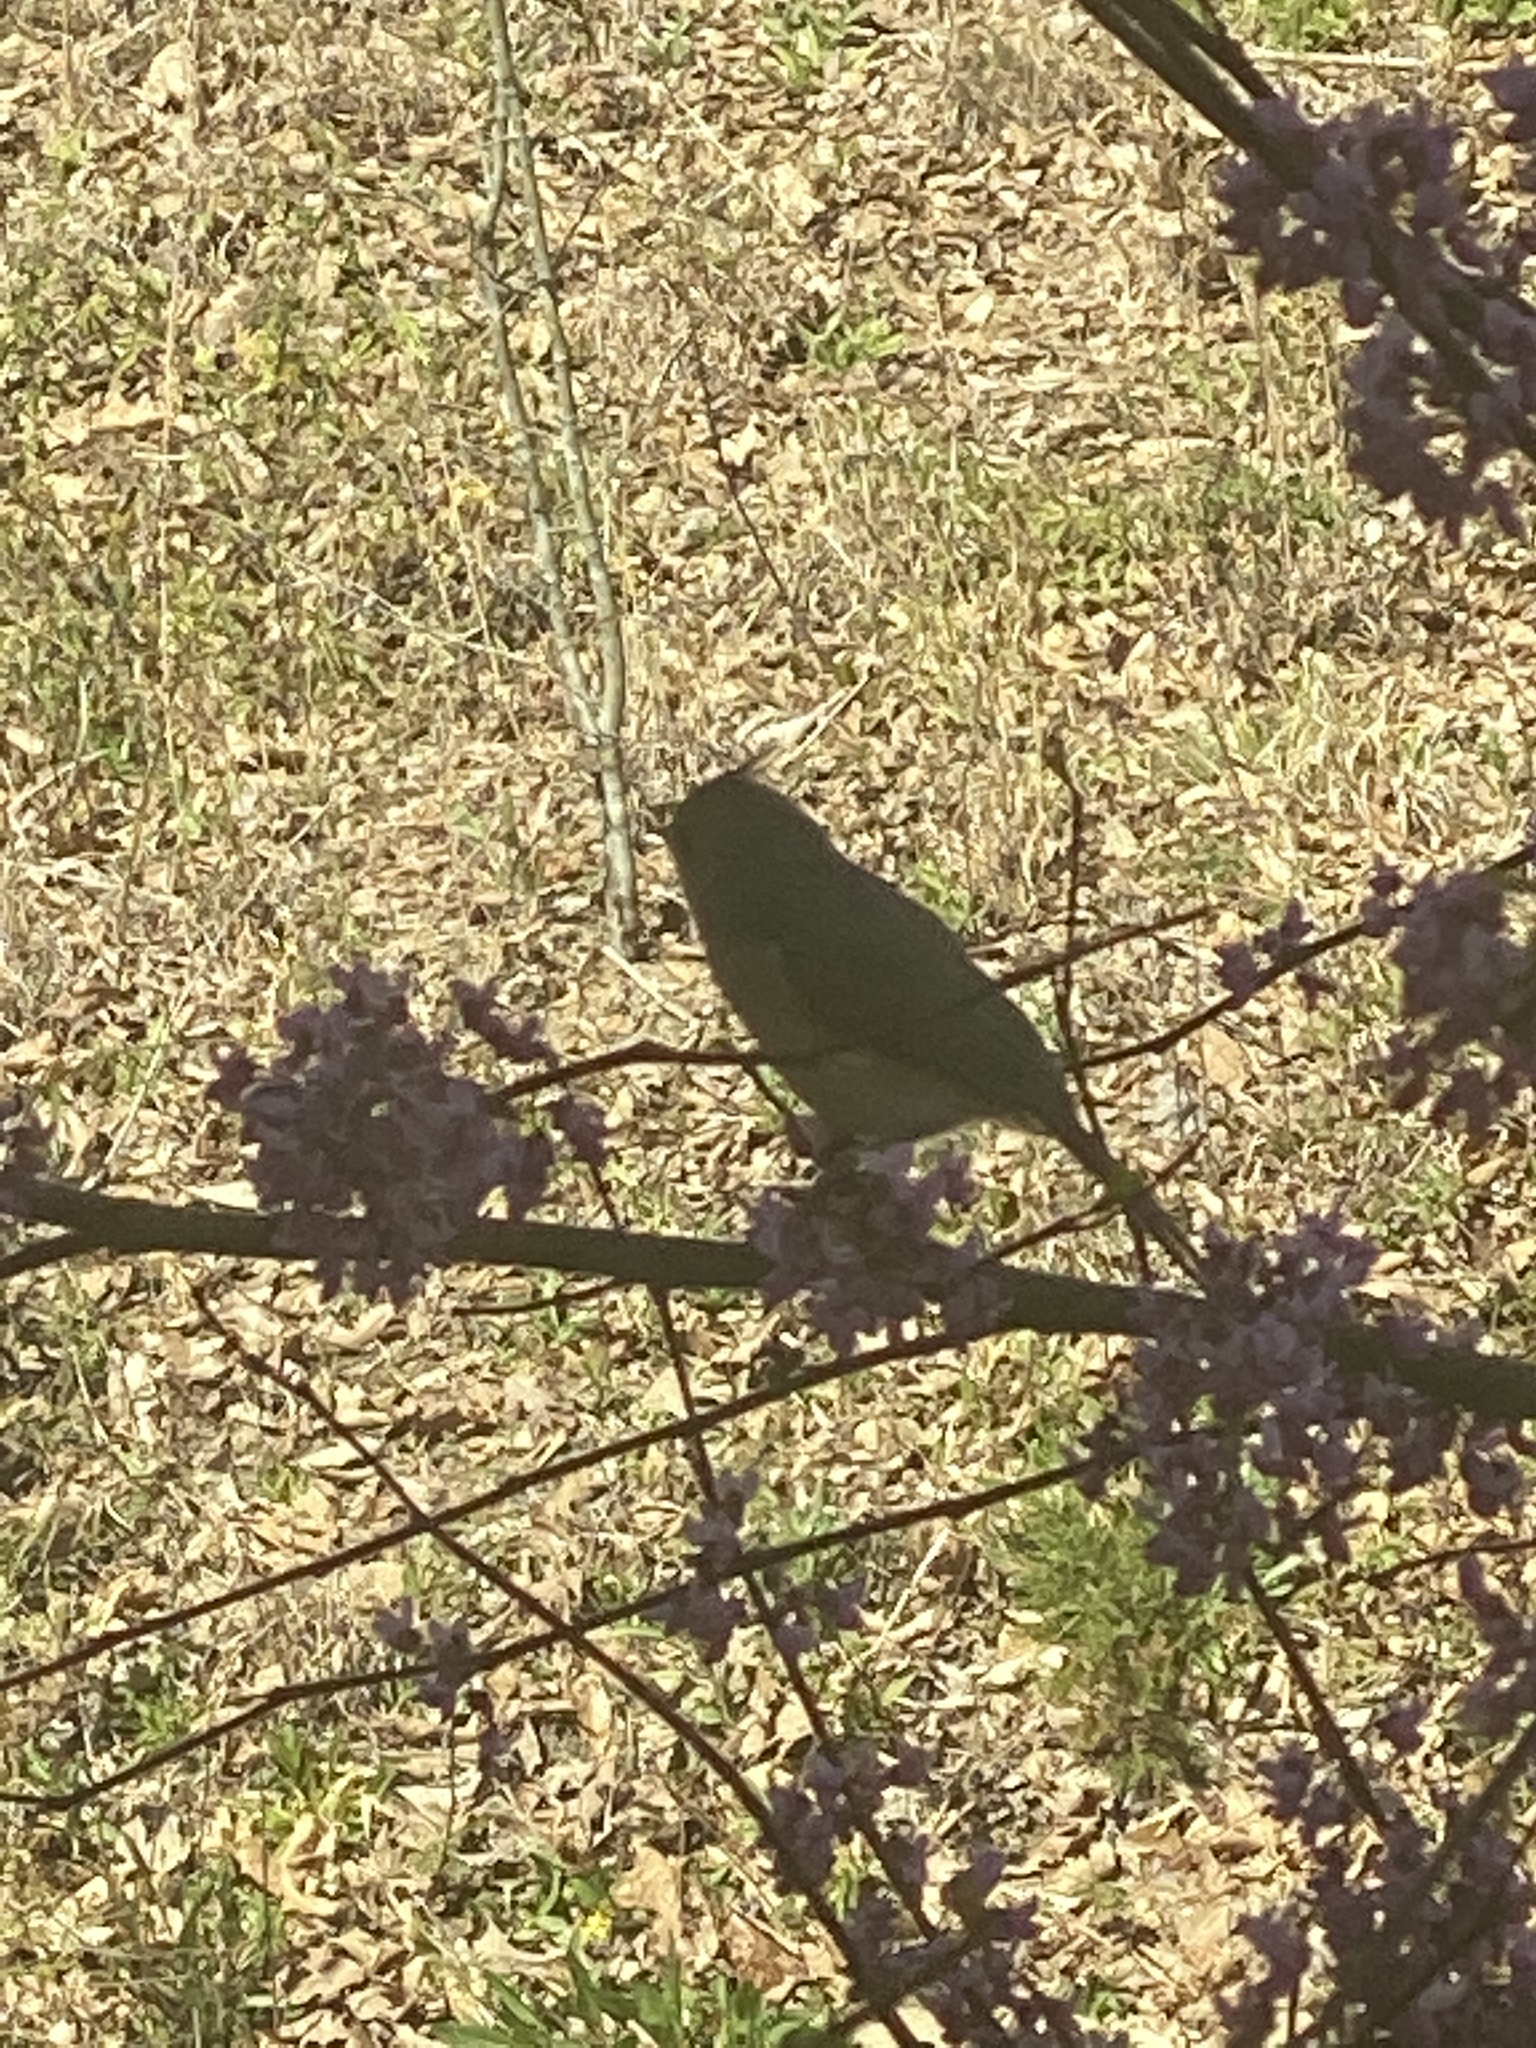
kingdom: Animalia
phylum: Chordata
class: Aves
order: Passeriformes
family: Paridae
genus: Baeolophus
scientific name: Baeolophus bicolor
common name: Tufted titmouse
